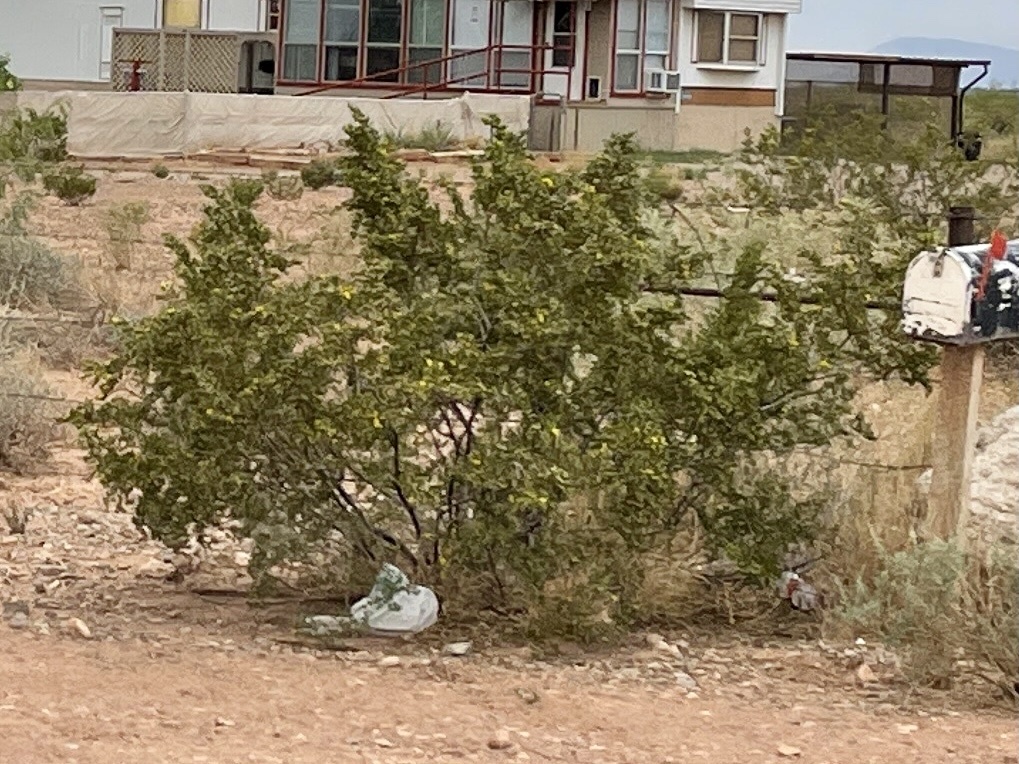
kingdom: Plantae
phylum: Tracheophyta
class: Magnoliopsida
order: Zygophyllales
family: Zygophyllaceae
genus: Larrea
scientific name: Larrea tridentata
